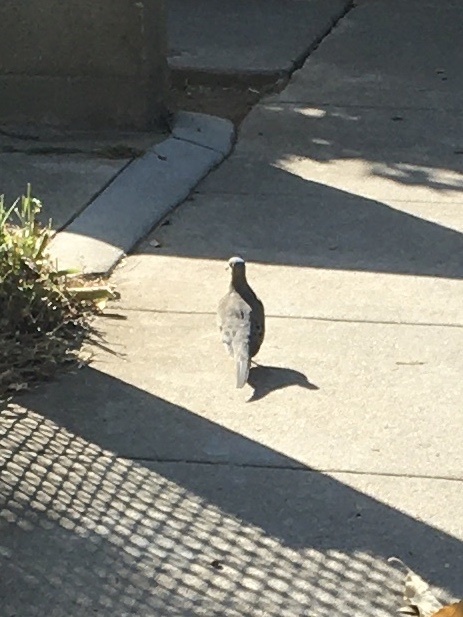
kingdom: Animalia
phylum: Chordata
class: Aves
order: Columbiformes
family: Columbidae
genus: Zenaida
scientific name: Zenaida macroura
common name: Mourning dove
